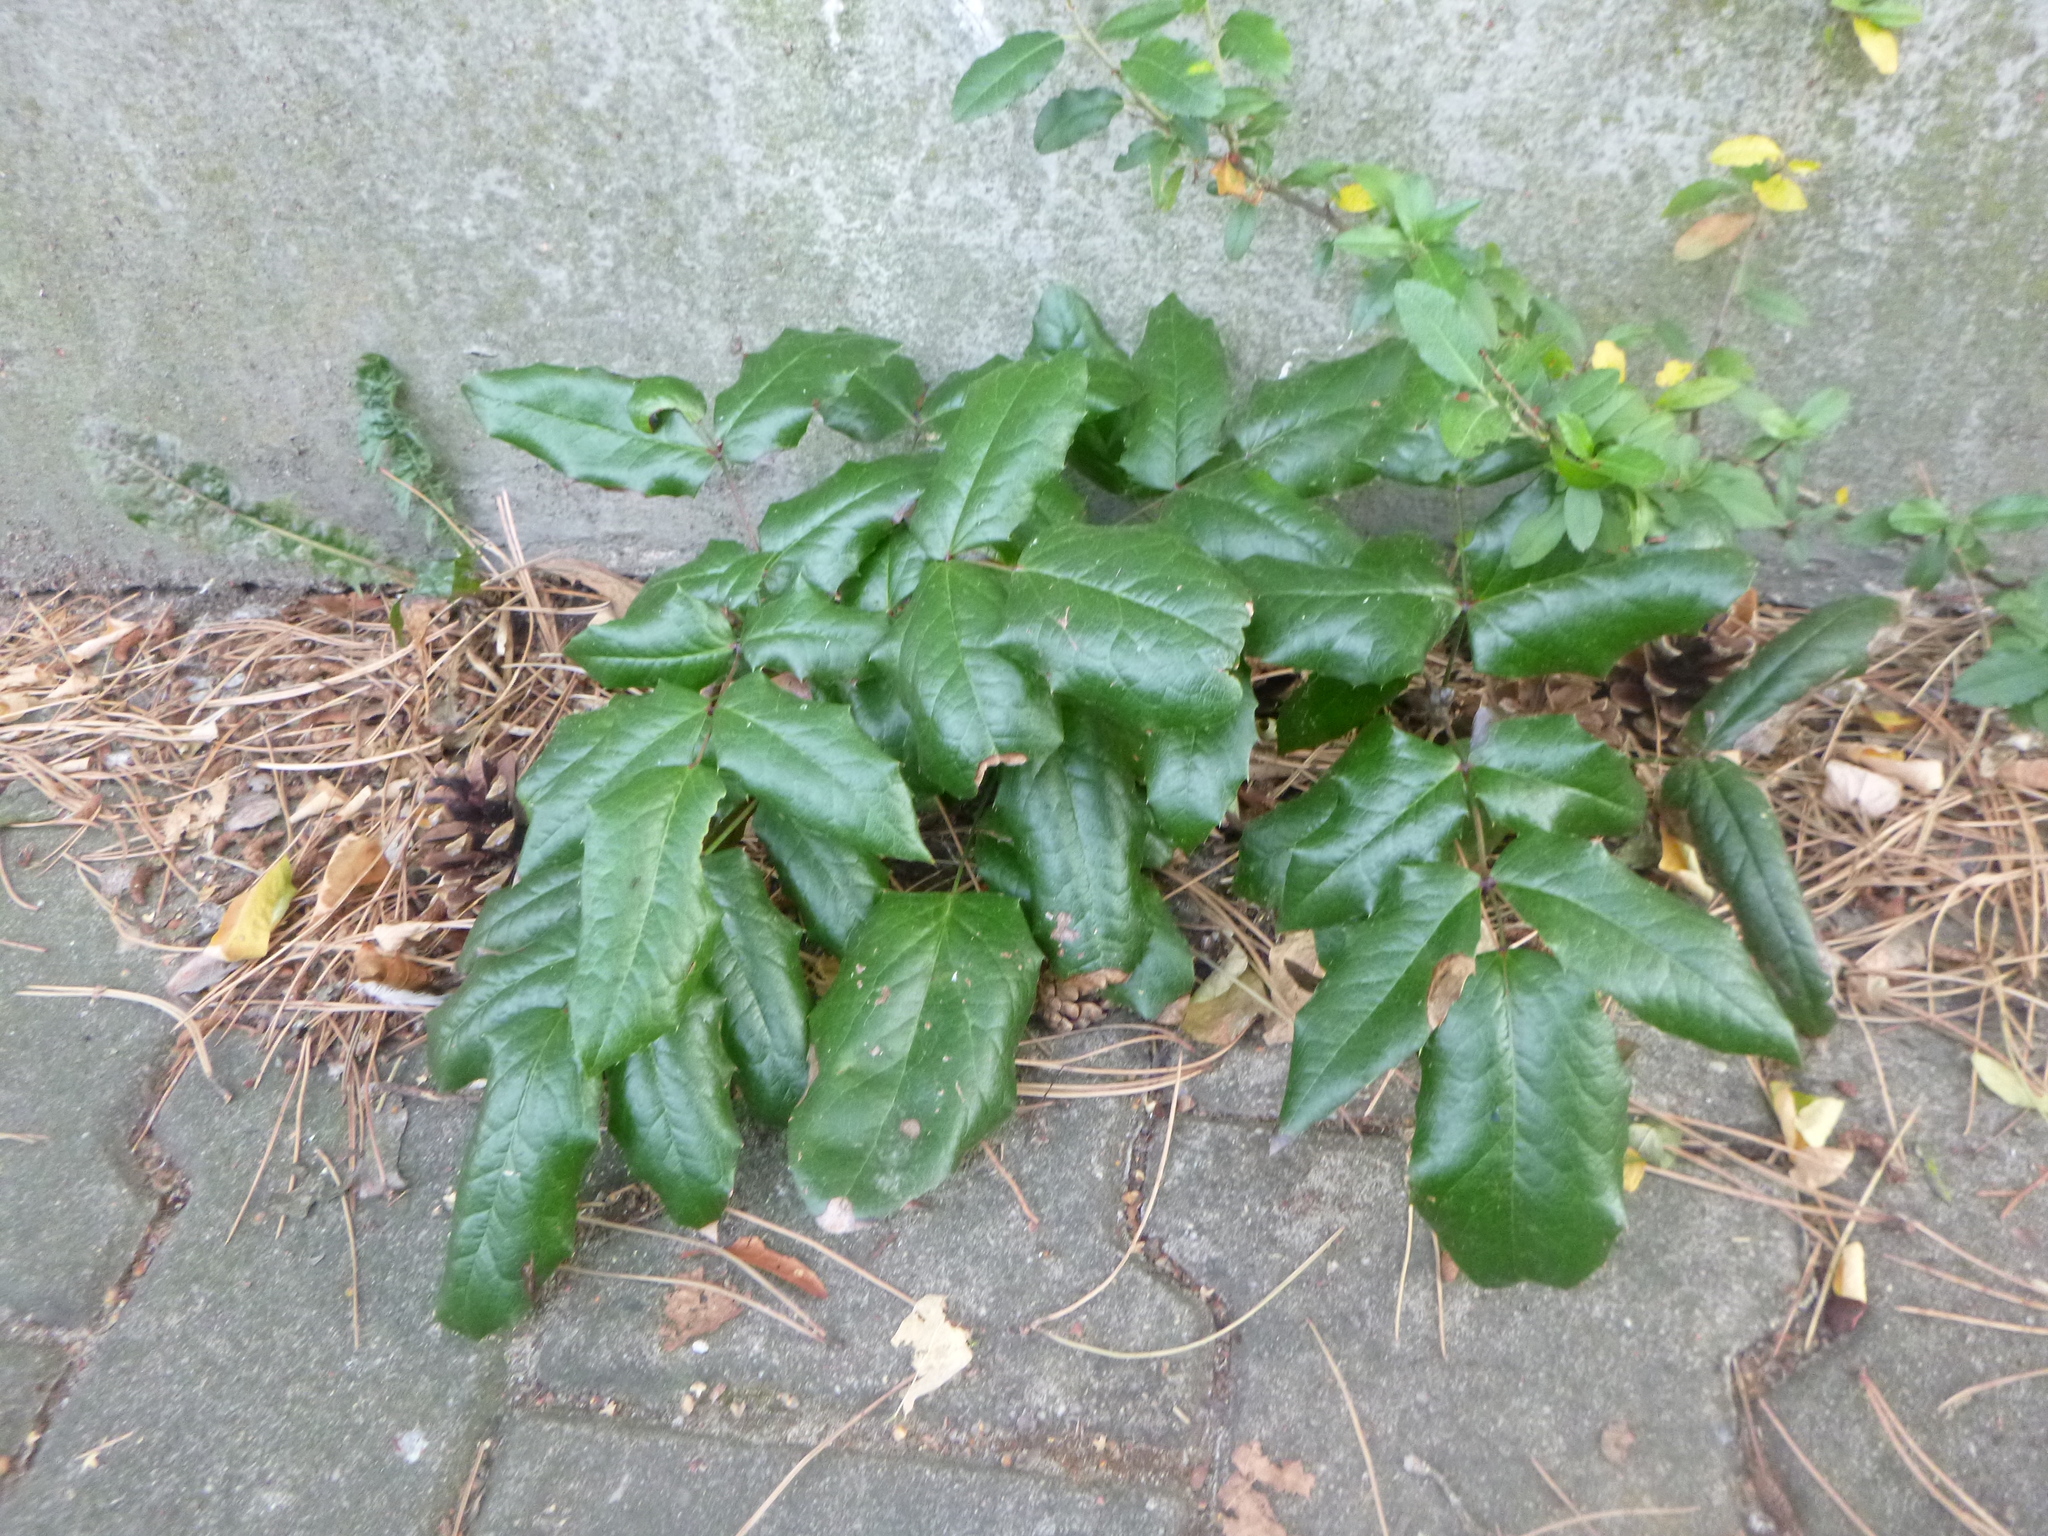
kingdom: Plantae
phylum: Tracheophyta
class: Magnoliopsida
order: Ranunculales
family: Berberidaceae
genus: Mahonia
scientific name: Mahonia aquifolium
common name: Oregon-grape
